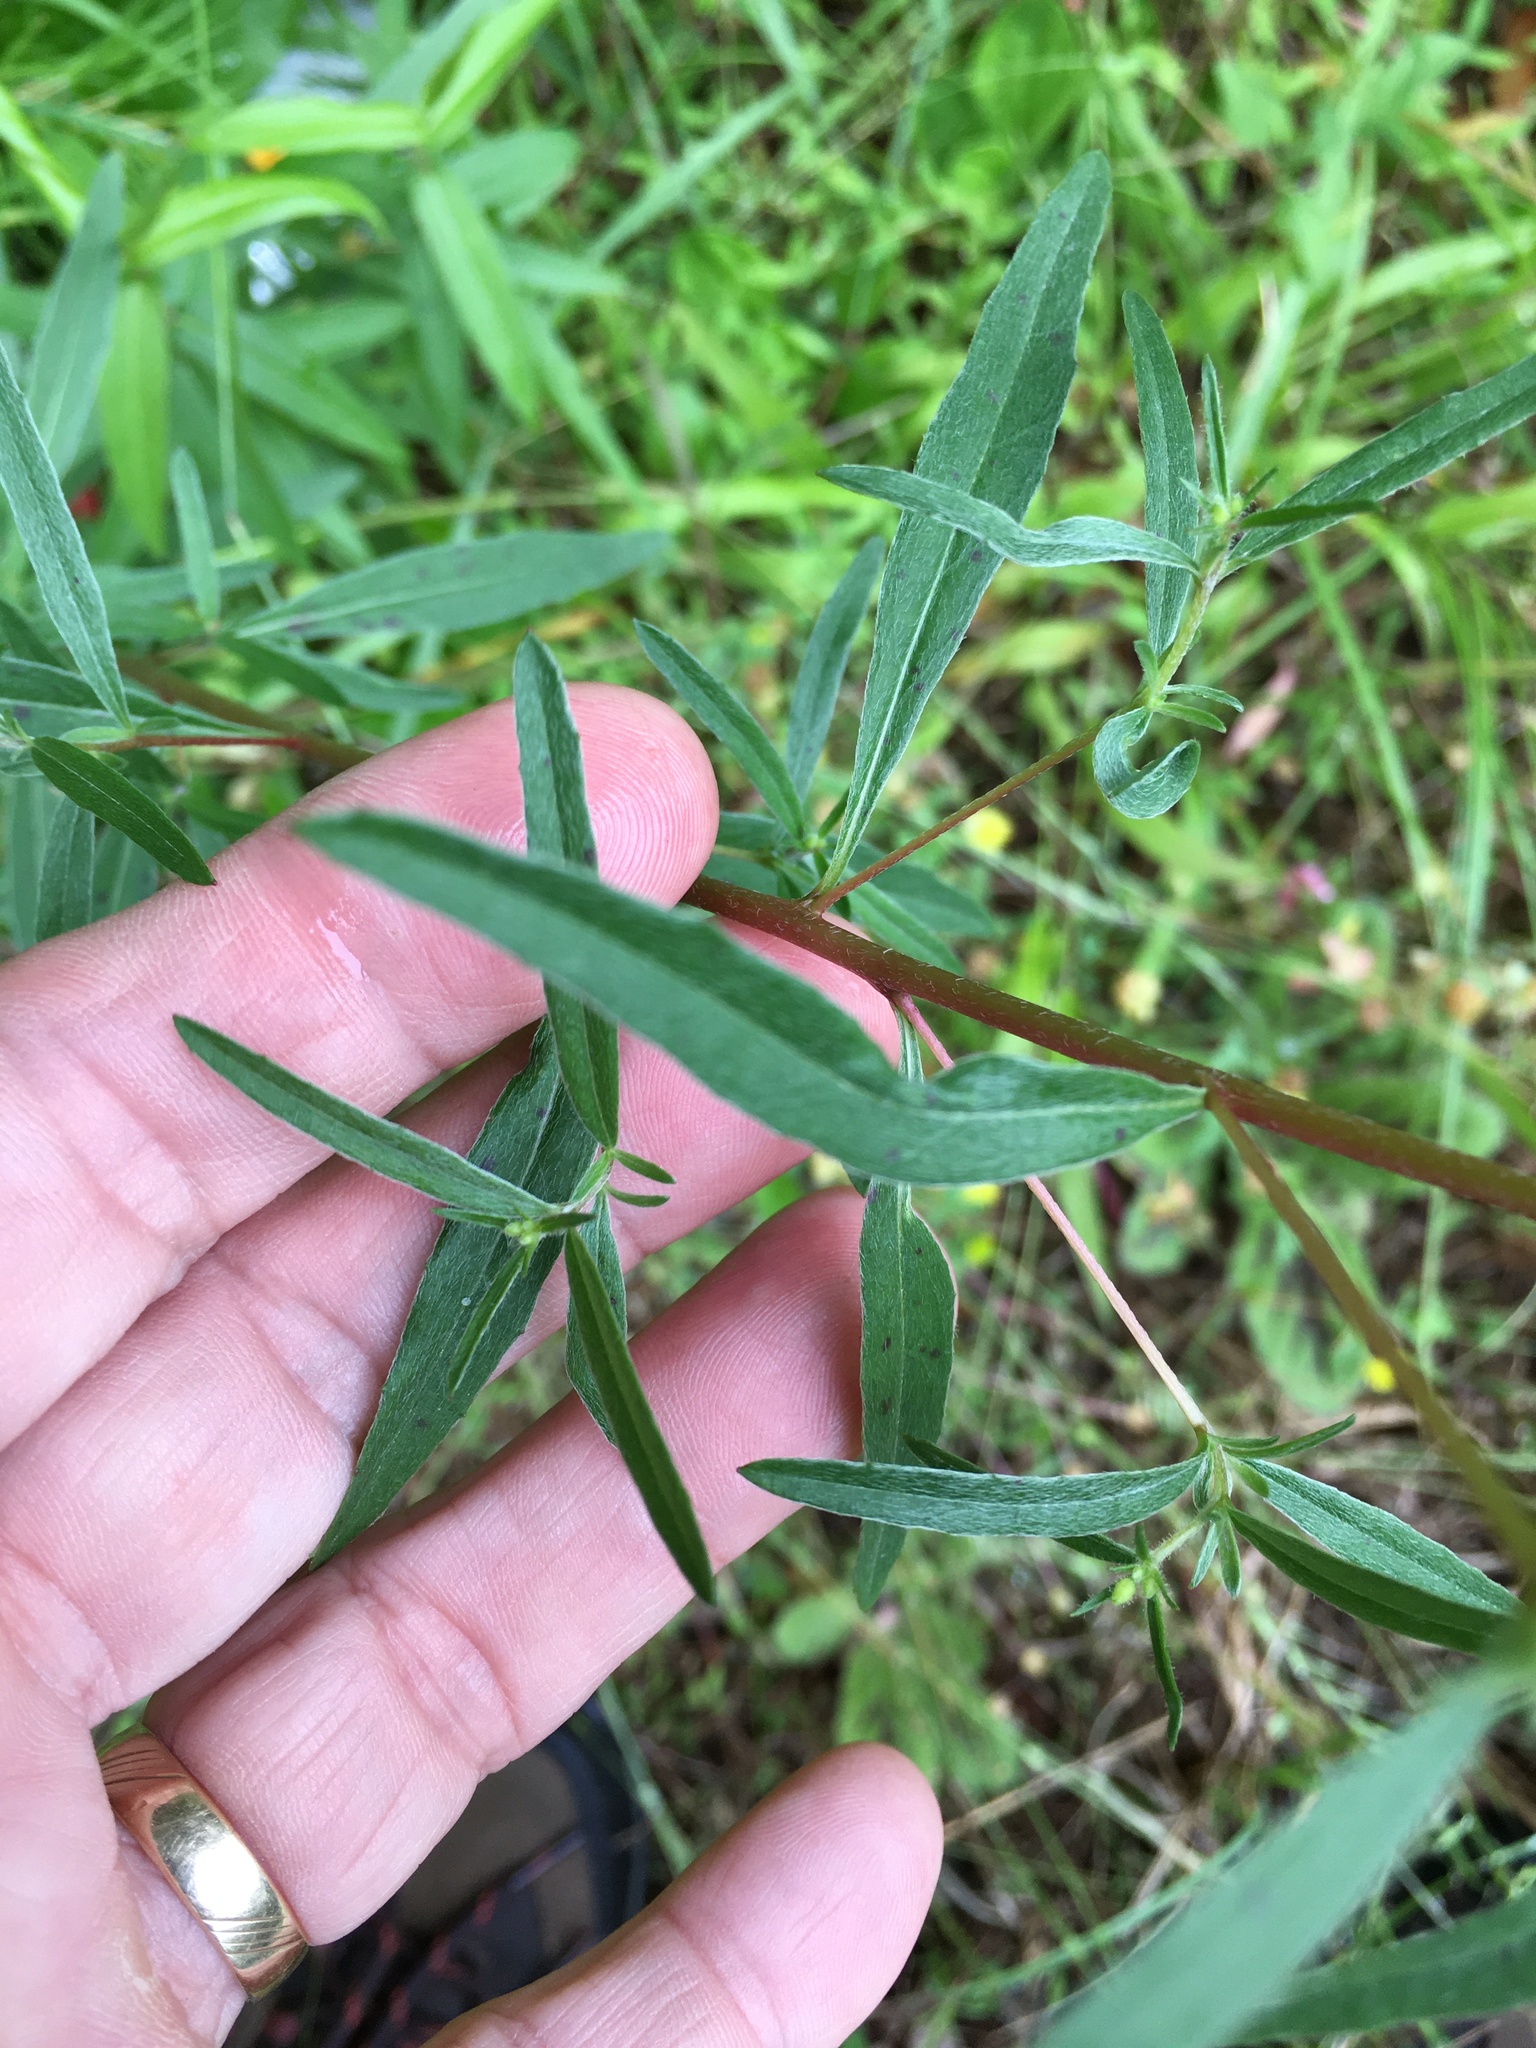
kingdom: Plantae
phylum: Tracheophyta
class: Magnoliopsida
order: Myrtales
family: Onagraceae
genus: Oenothera
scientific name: Oenothera fruticosa
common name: Southern sundrops
